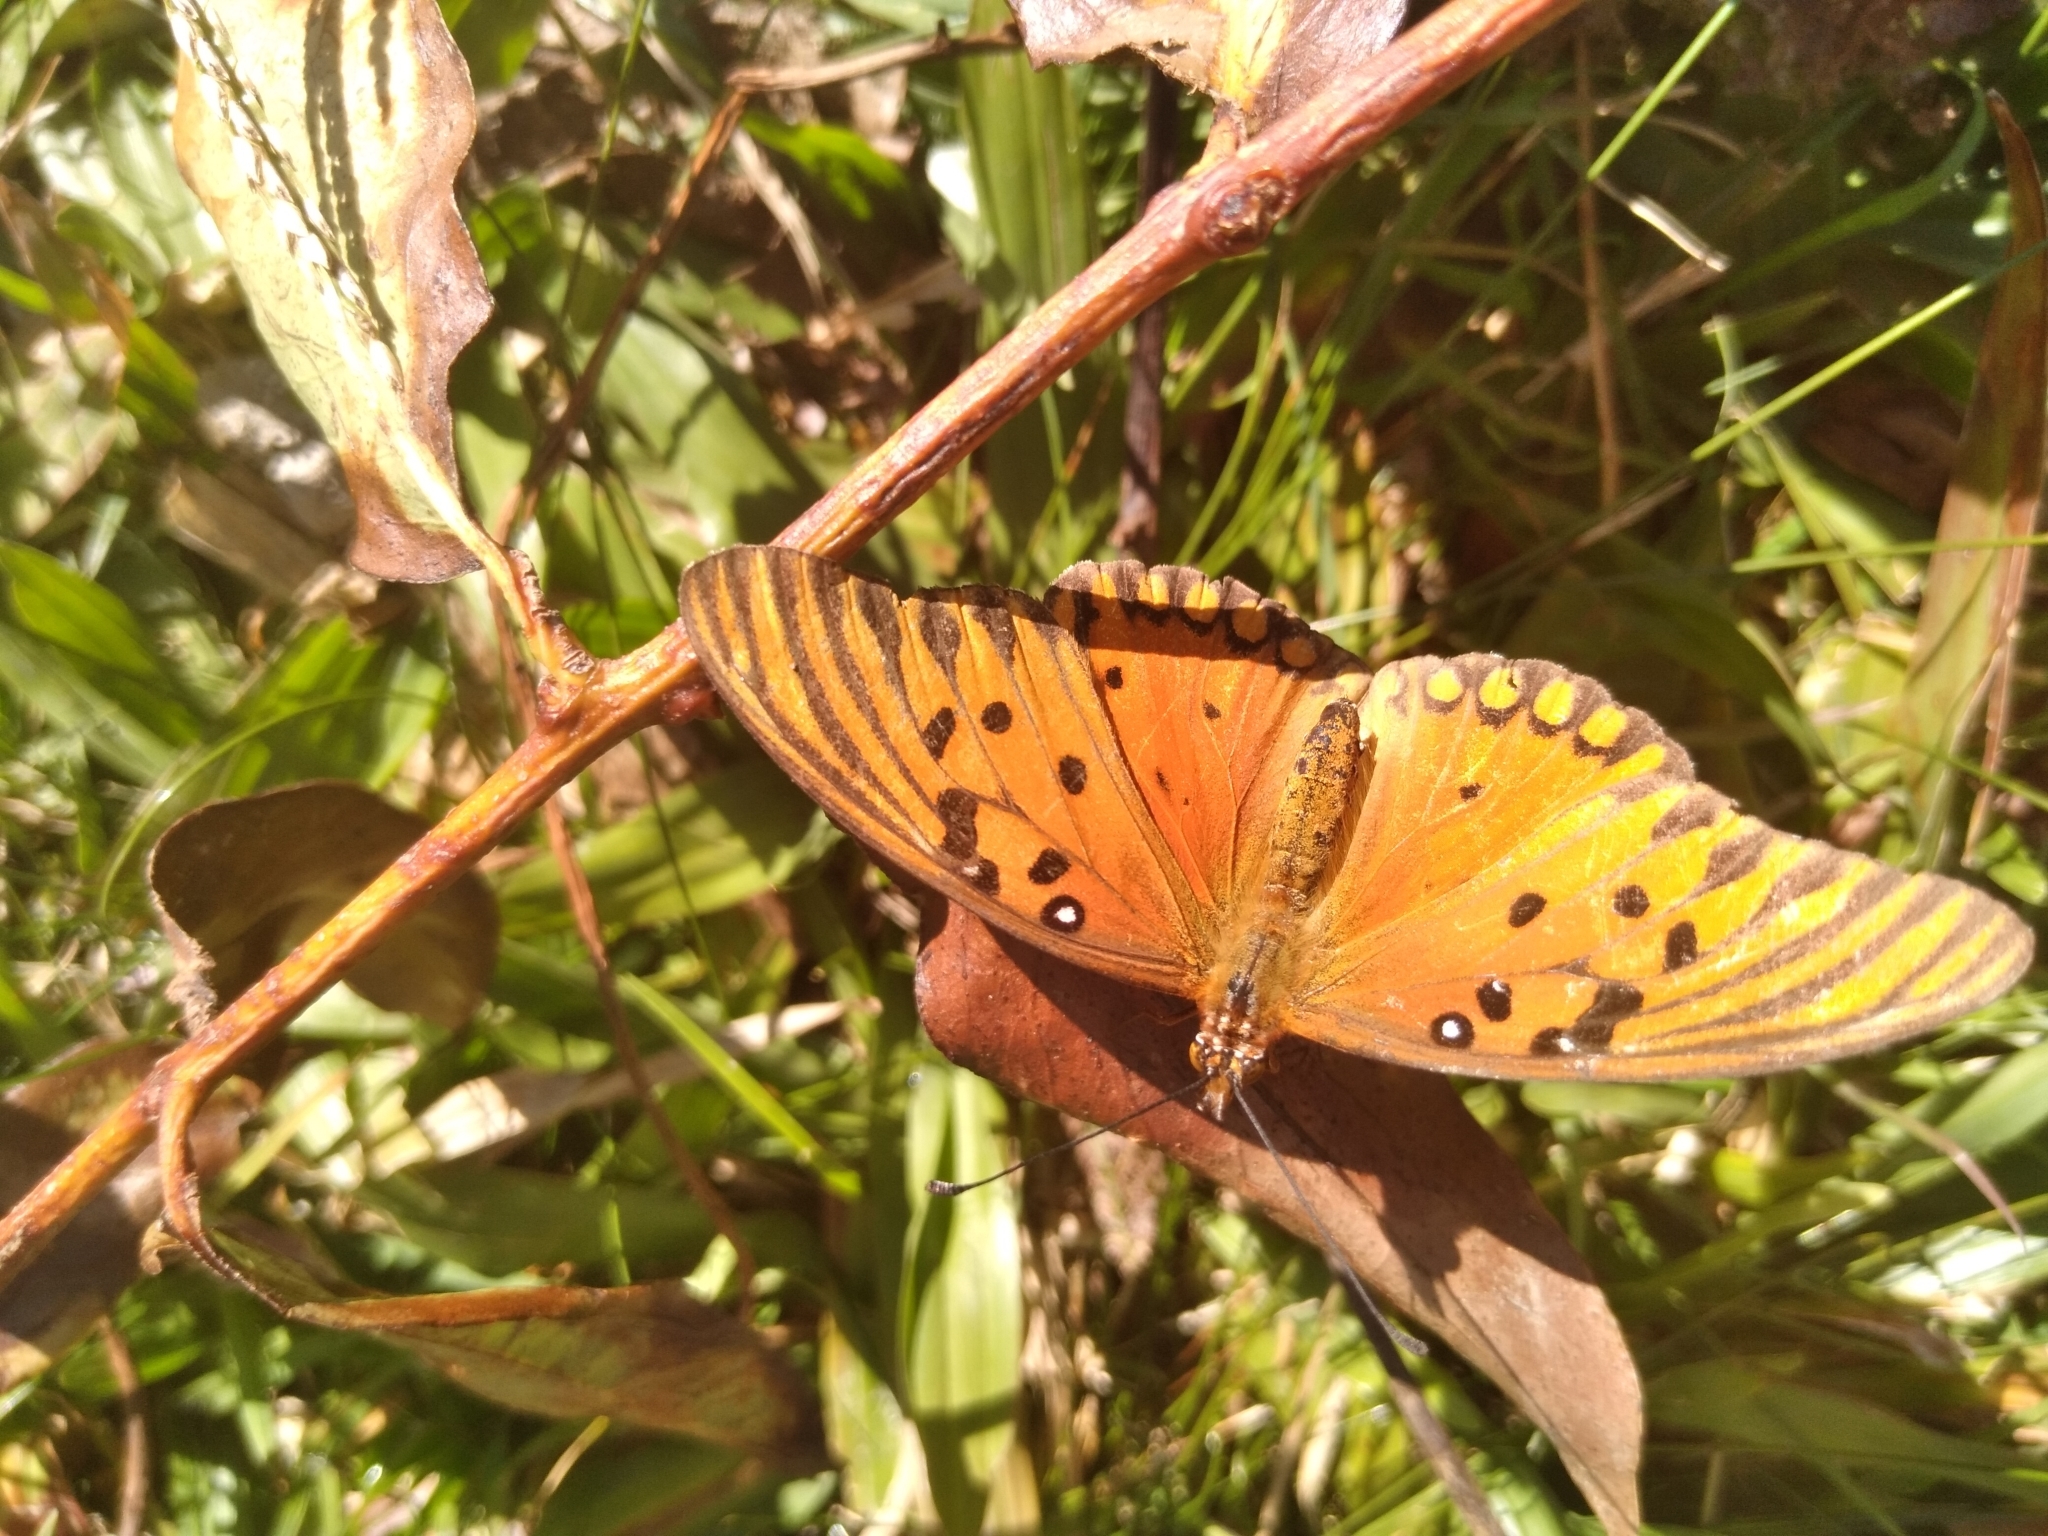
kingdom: Animalia
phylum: Arthropoda
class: Insecta
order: Lepidoptera
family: Nymphalidae
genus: Dione
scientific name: Dione vanillae
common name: Gulf fritillary
